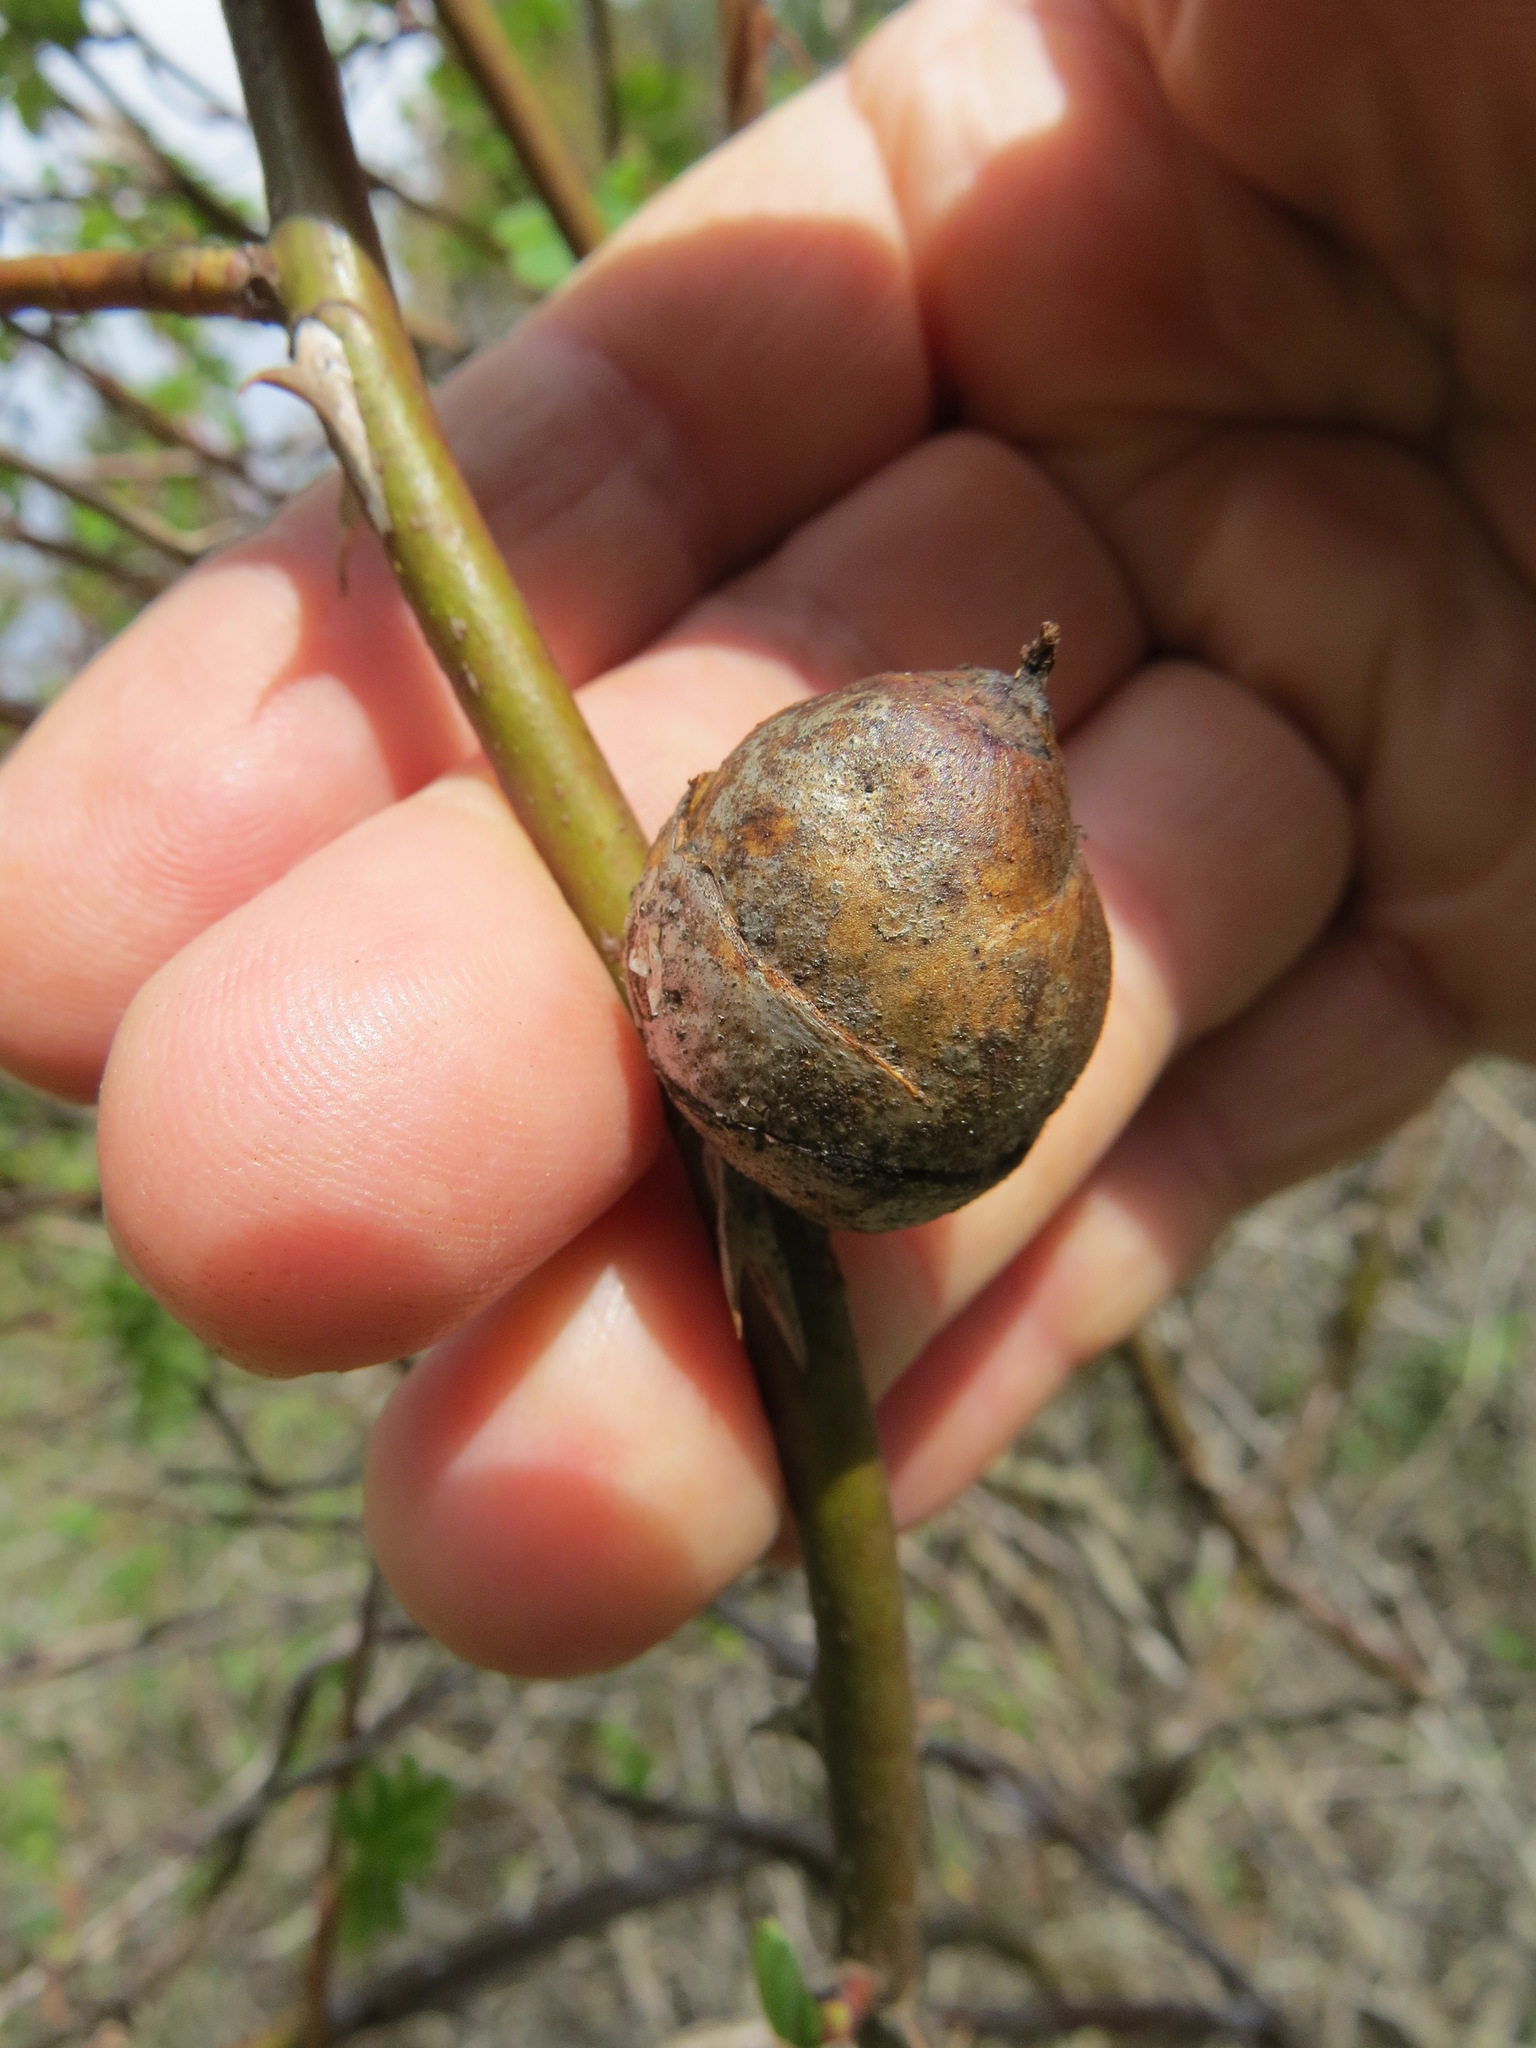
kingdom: Animalia
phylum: Arthropoda
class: Insecta
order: Hymenoptera
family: Cynipidae
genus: Periclistus
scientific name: Periclistus pirata
